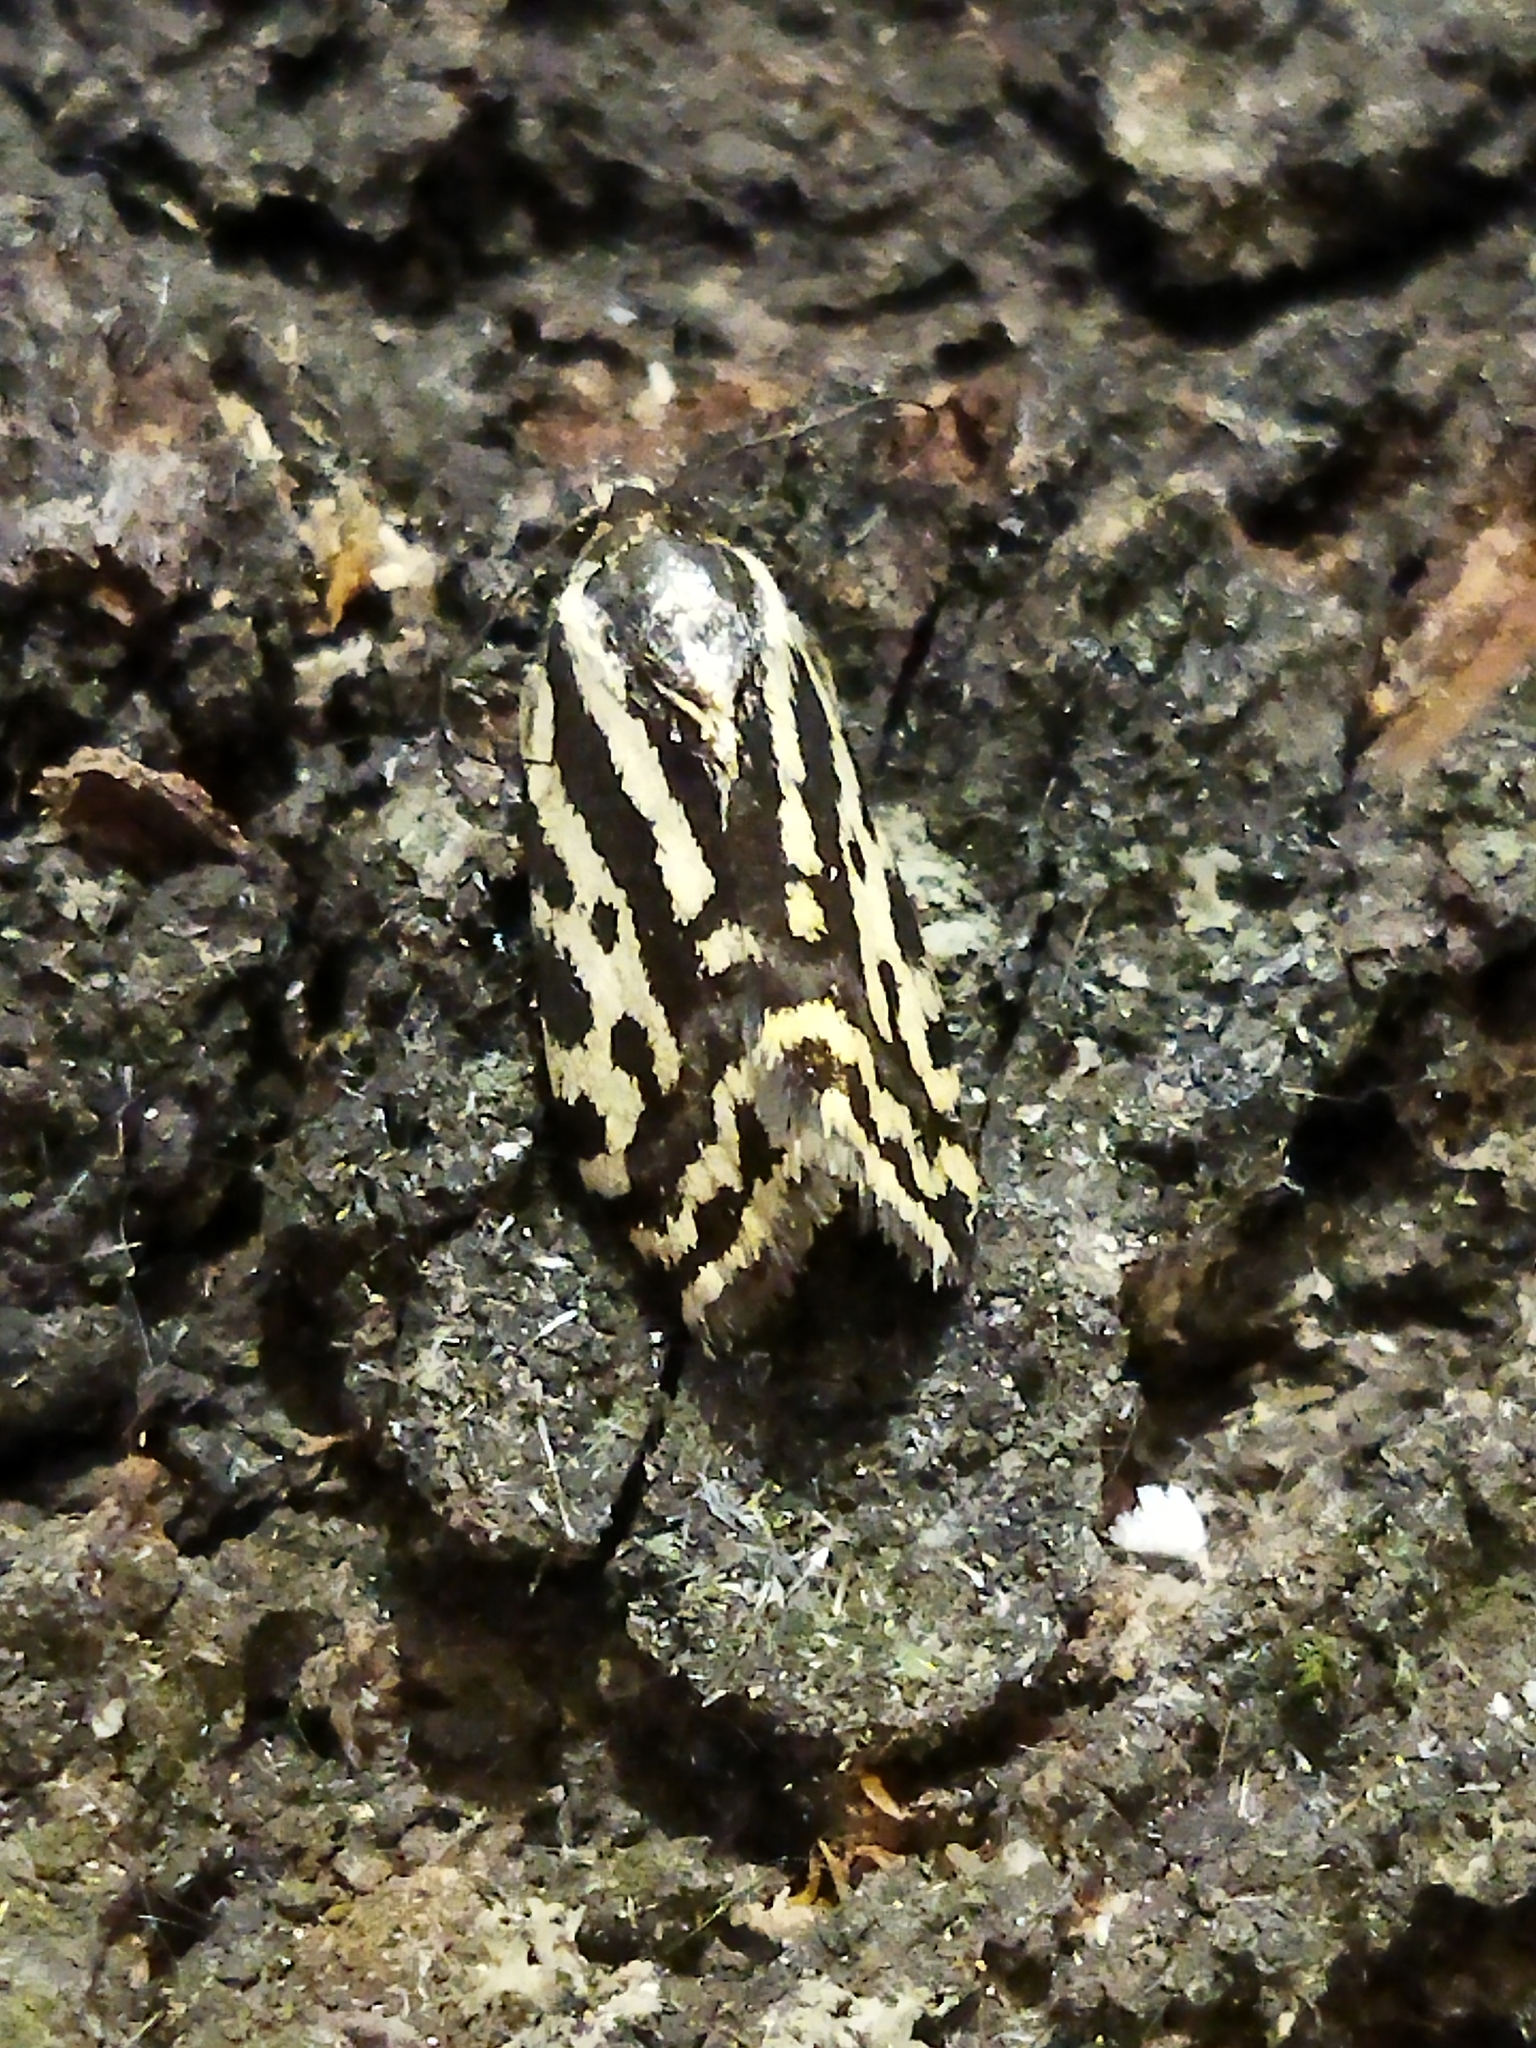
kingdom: Animalia
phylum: Arthropoda
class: Insecta
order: Lepidoptera
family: Noctuidae
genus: Acontia
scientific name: Acontia trabealis
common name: Spotted sulphur
